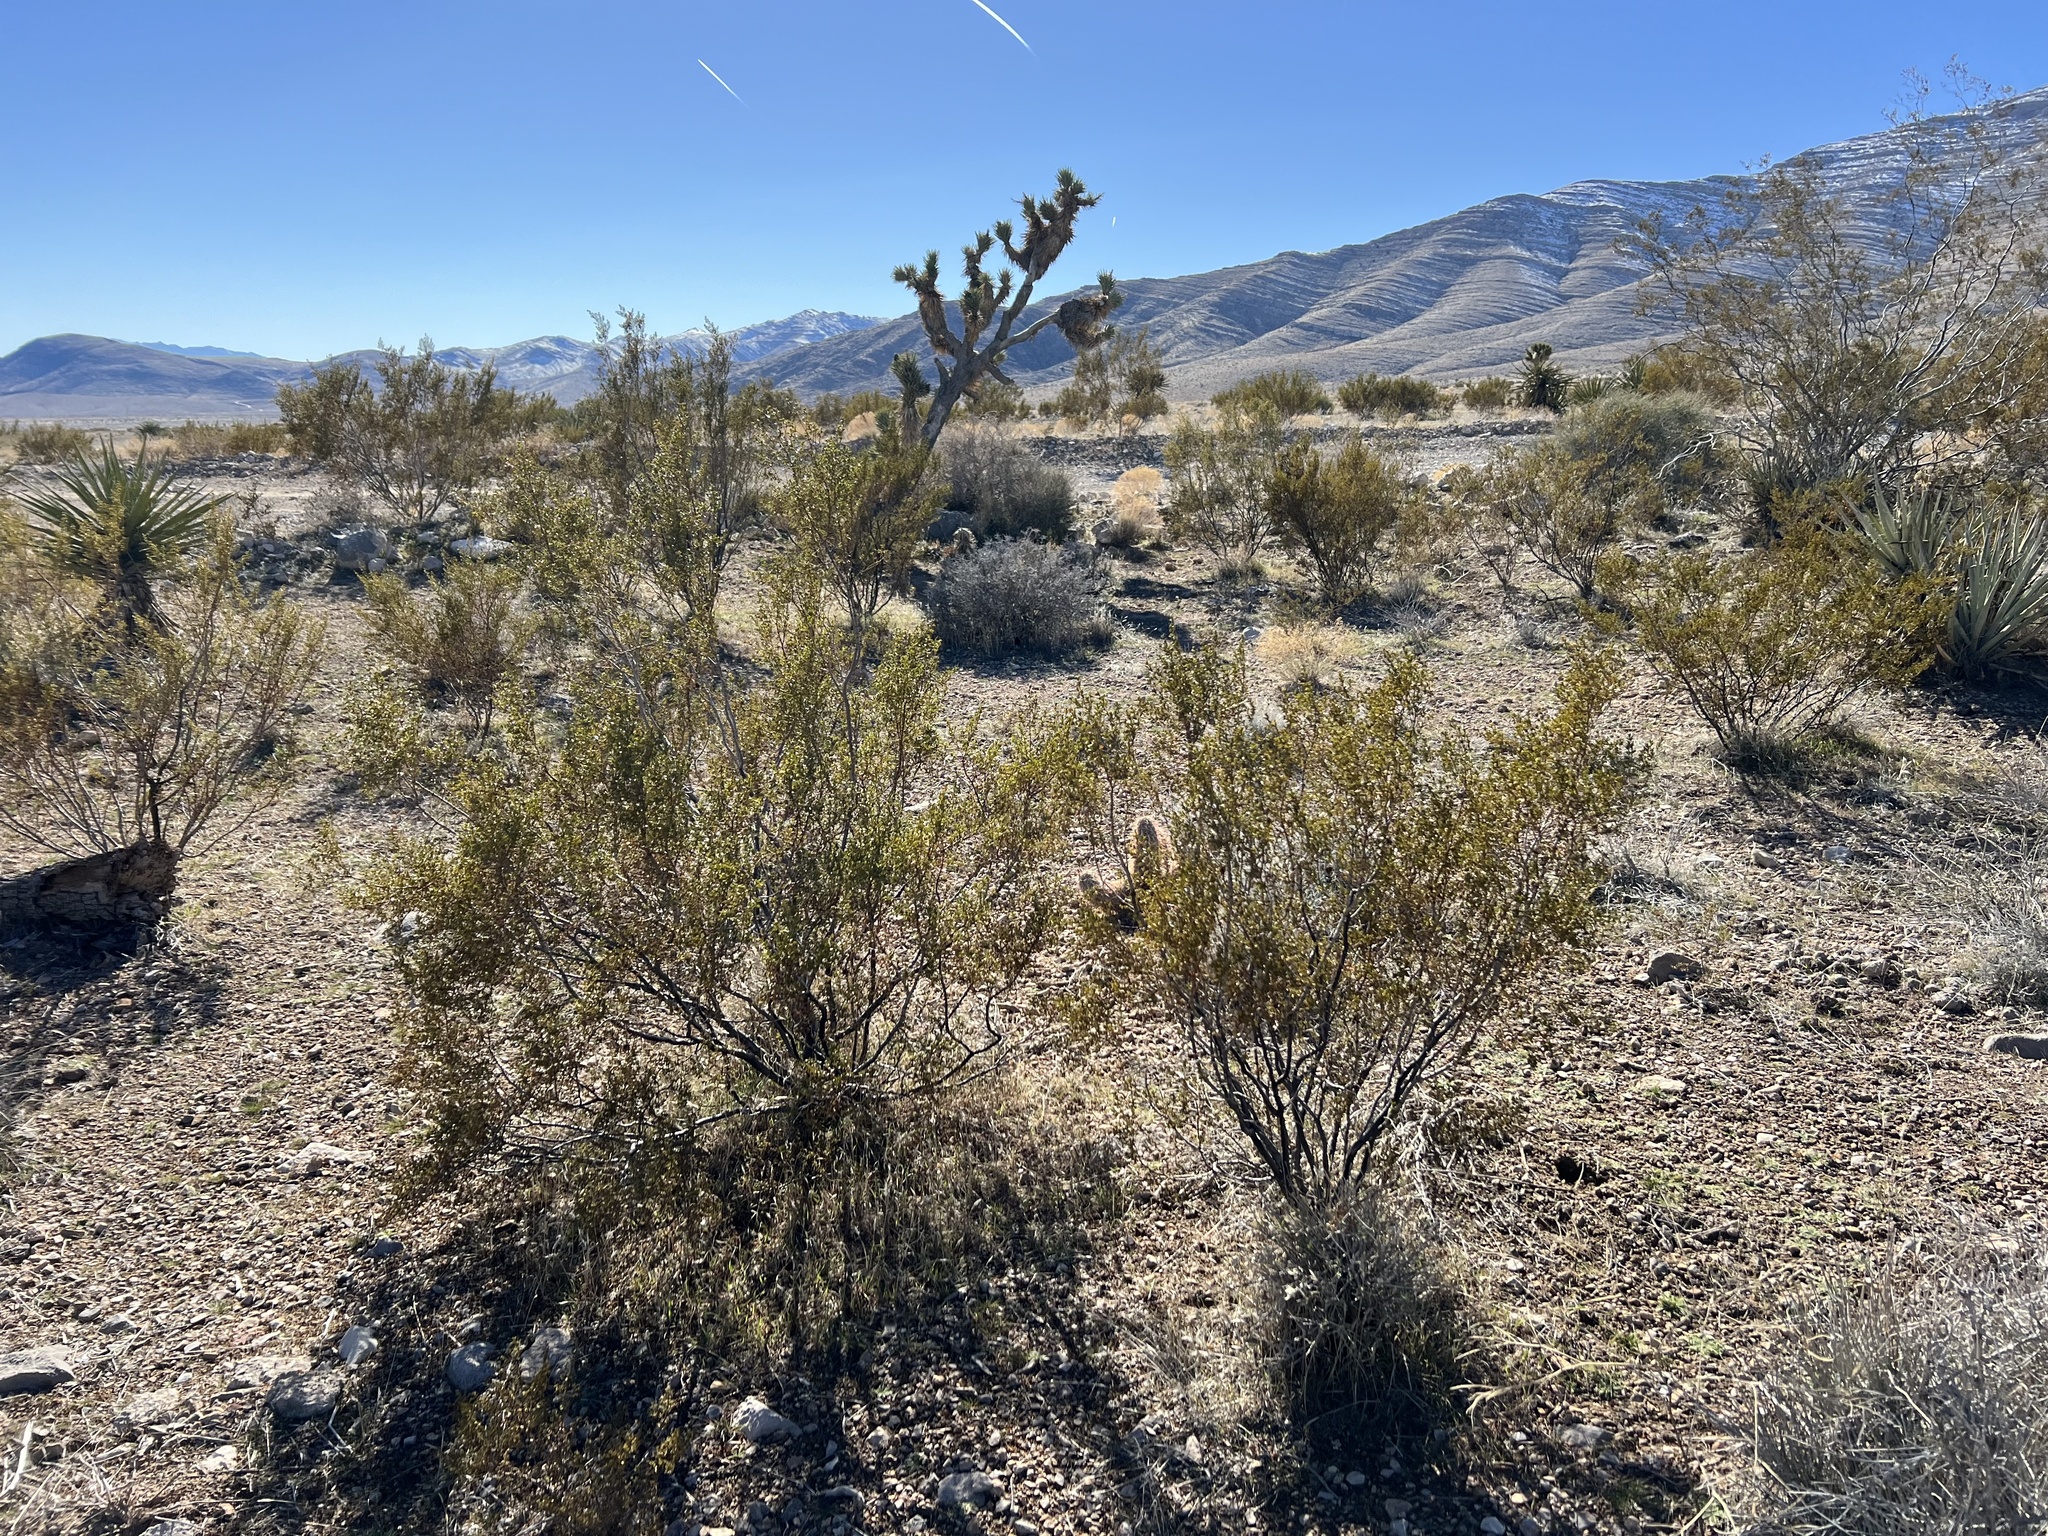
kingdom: Plantae
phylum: Tracheophyta
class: Magnoliopsida
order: Zygophyllales
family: Zygophyllaceae
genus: Larrea
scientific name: Larrea tridentata
